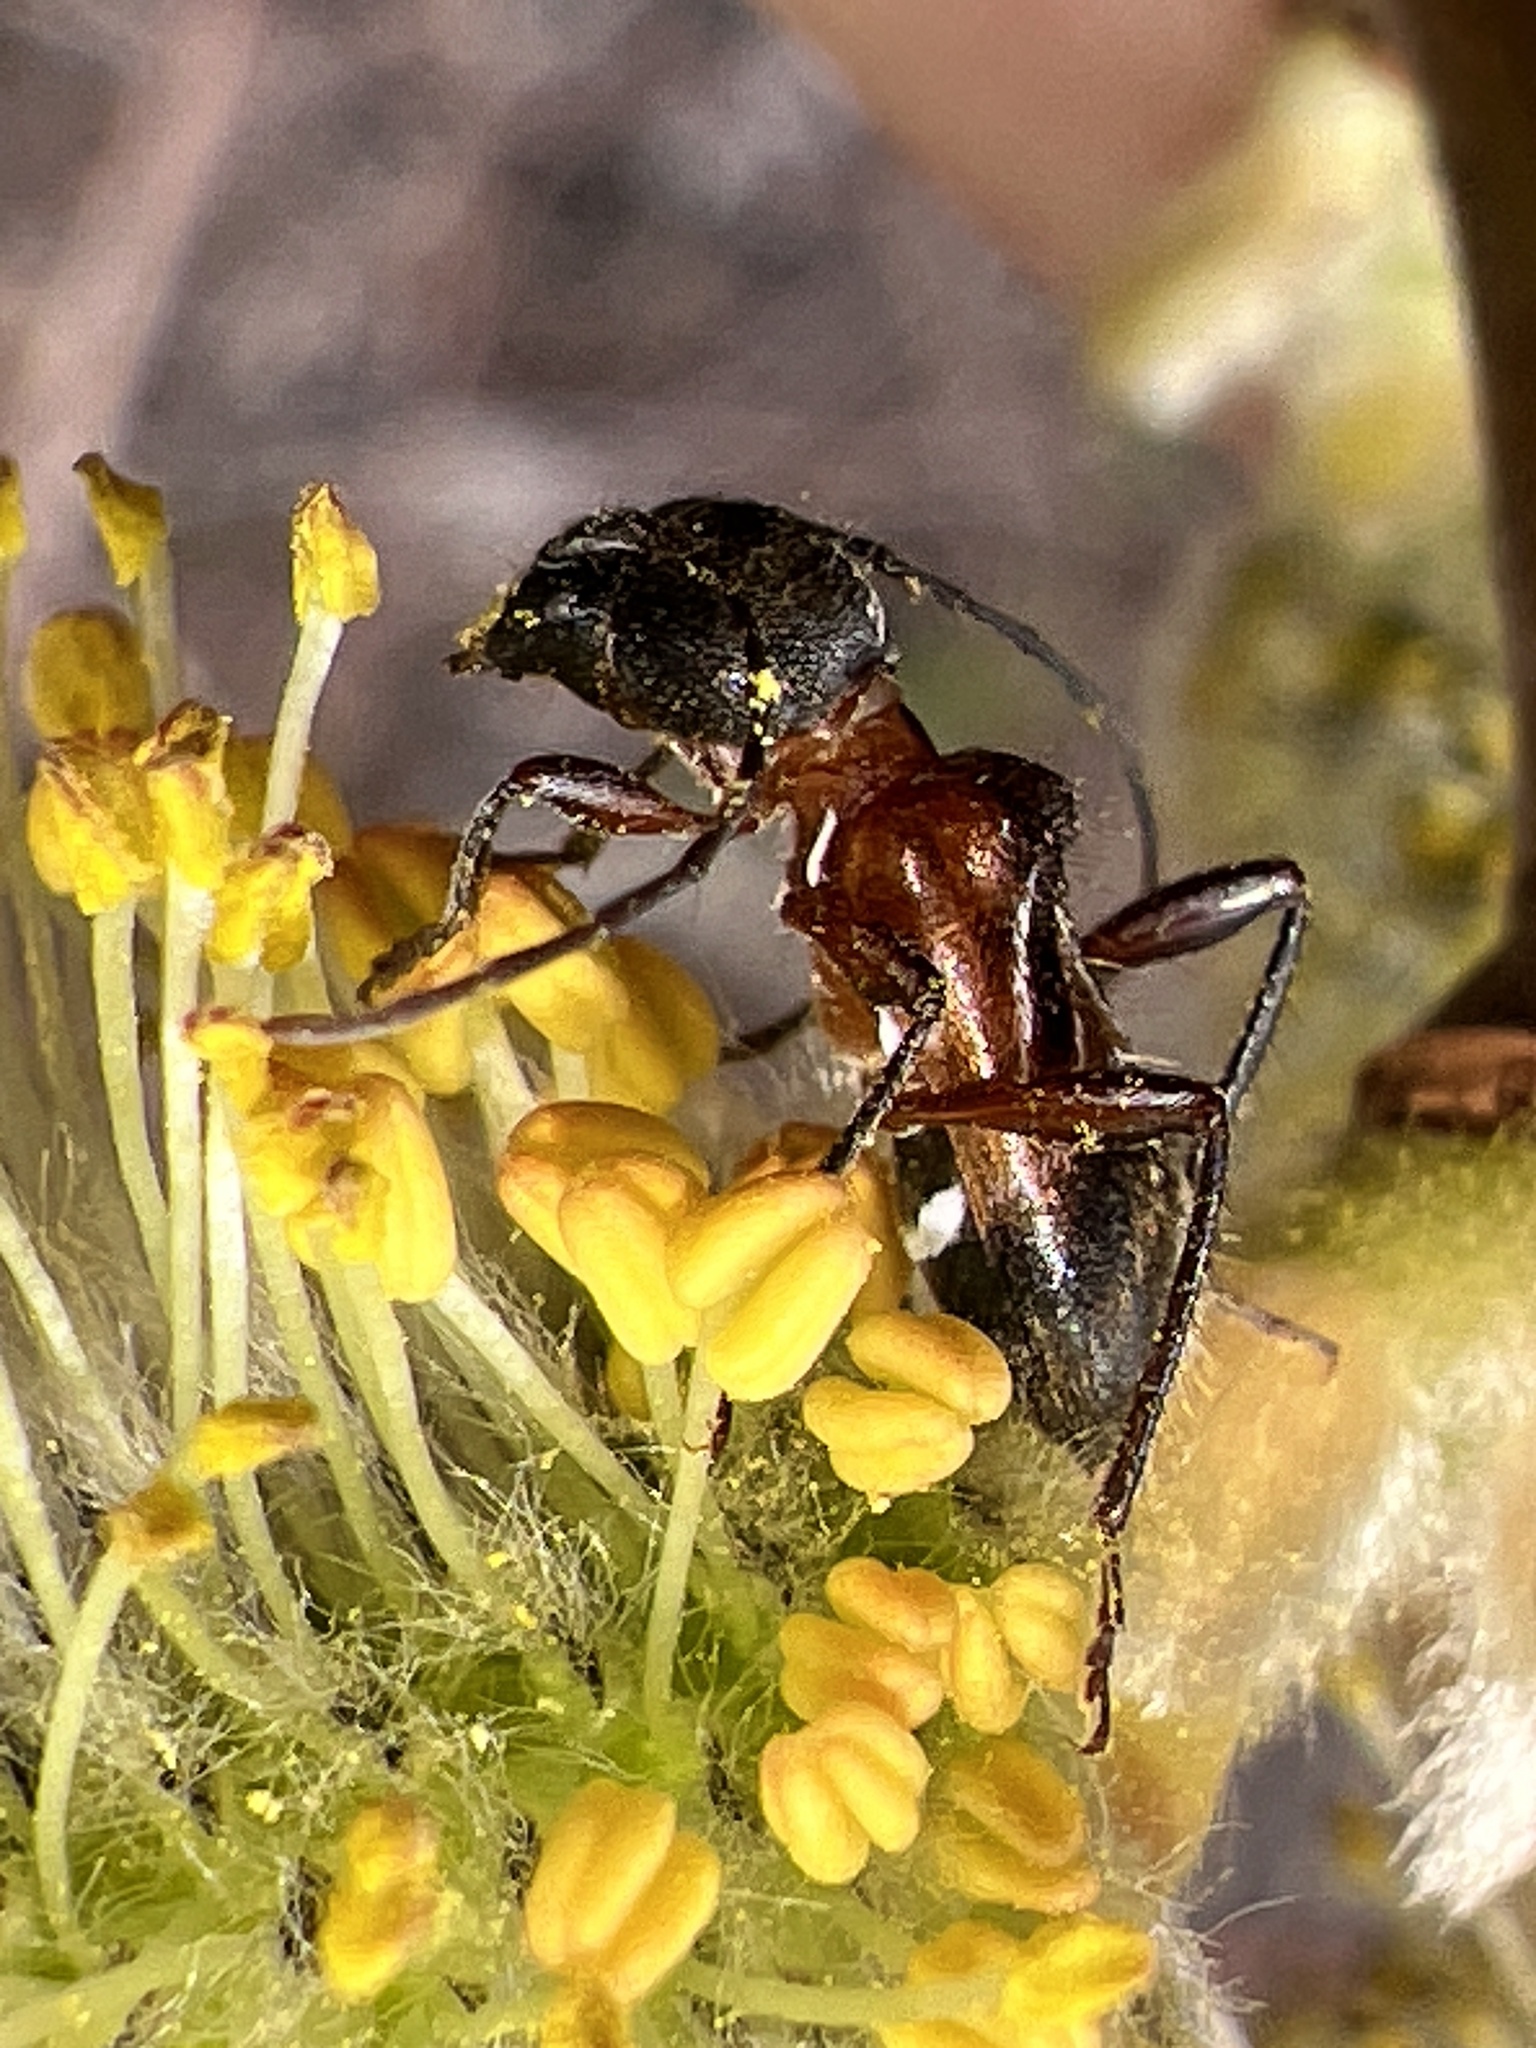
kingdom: Animalia
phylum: Arthropoda
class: Insecta
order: Coleoptera
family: Cerambycidae
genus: Cyrtophorus
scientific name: Cyrtophorus verrucosus
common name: Ant-like longhorn beetle
